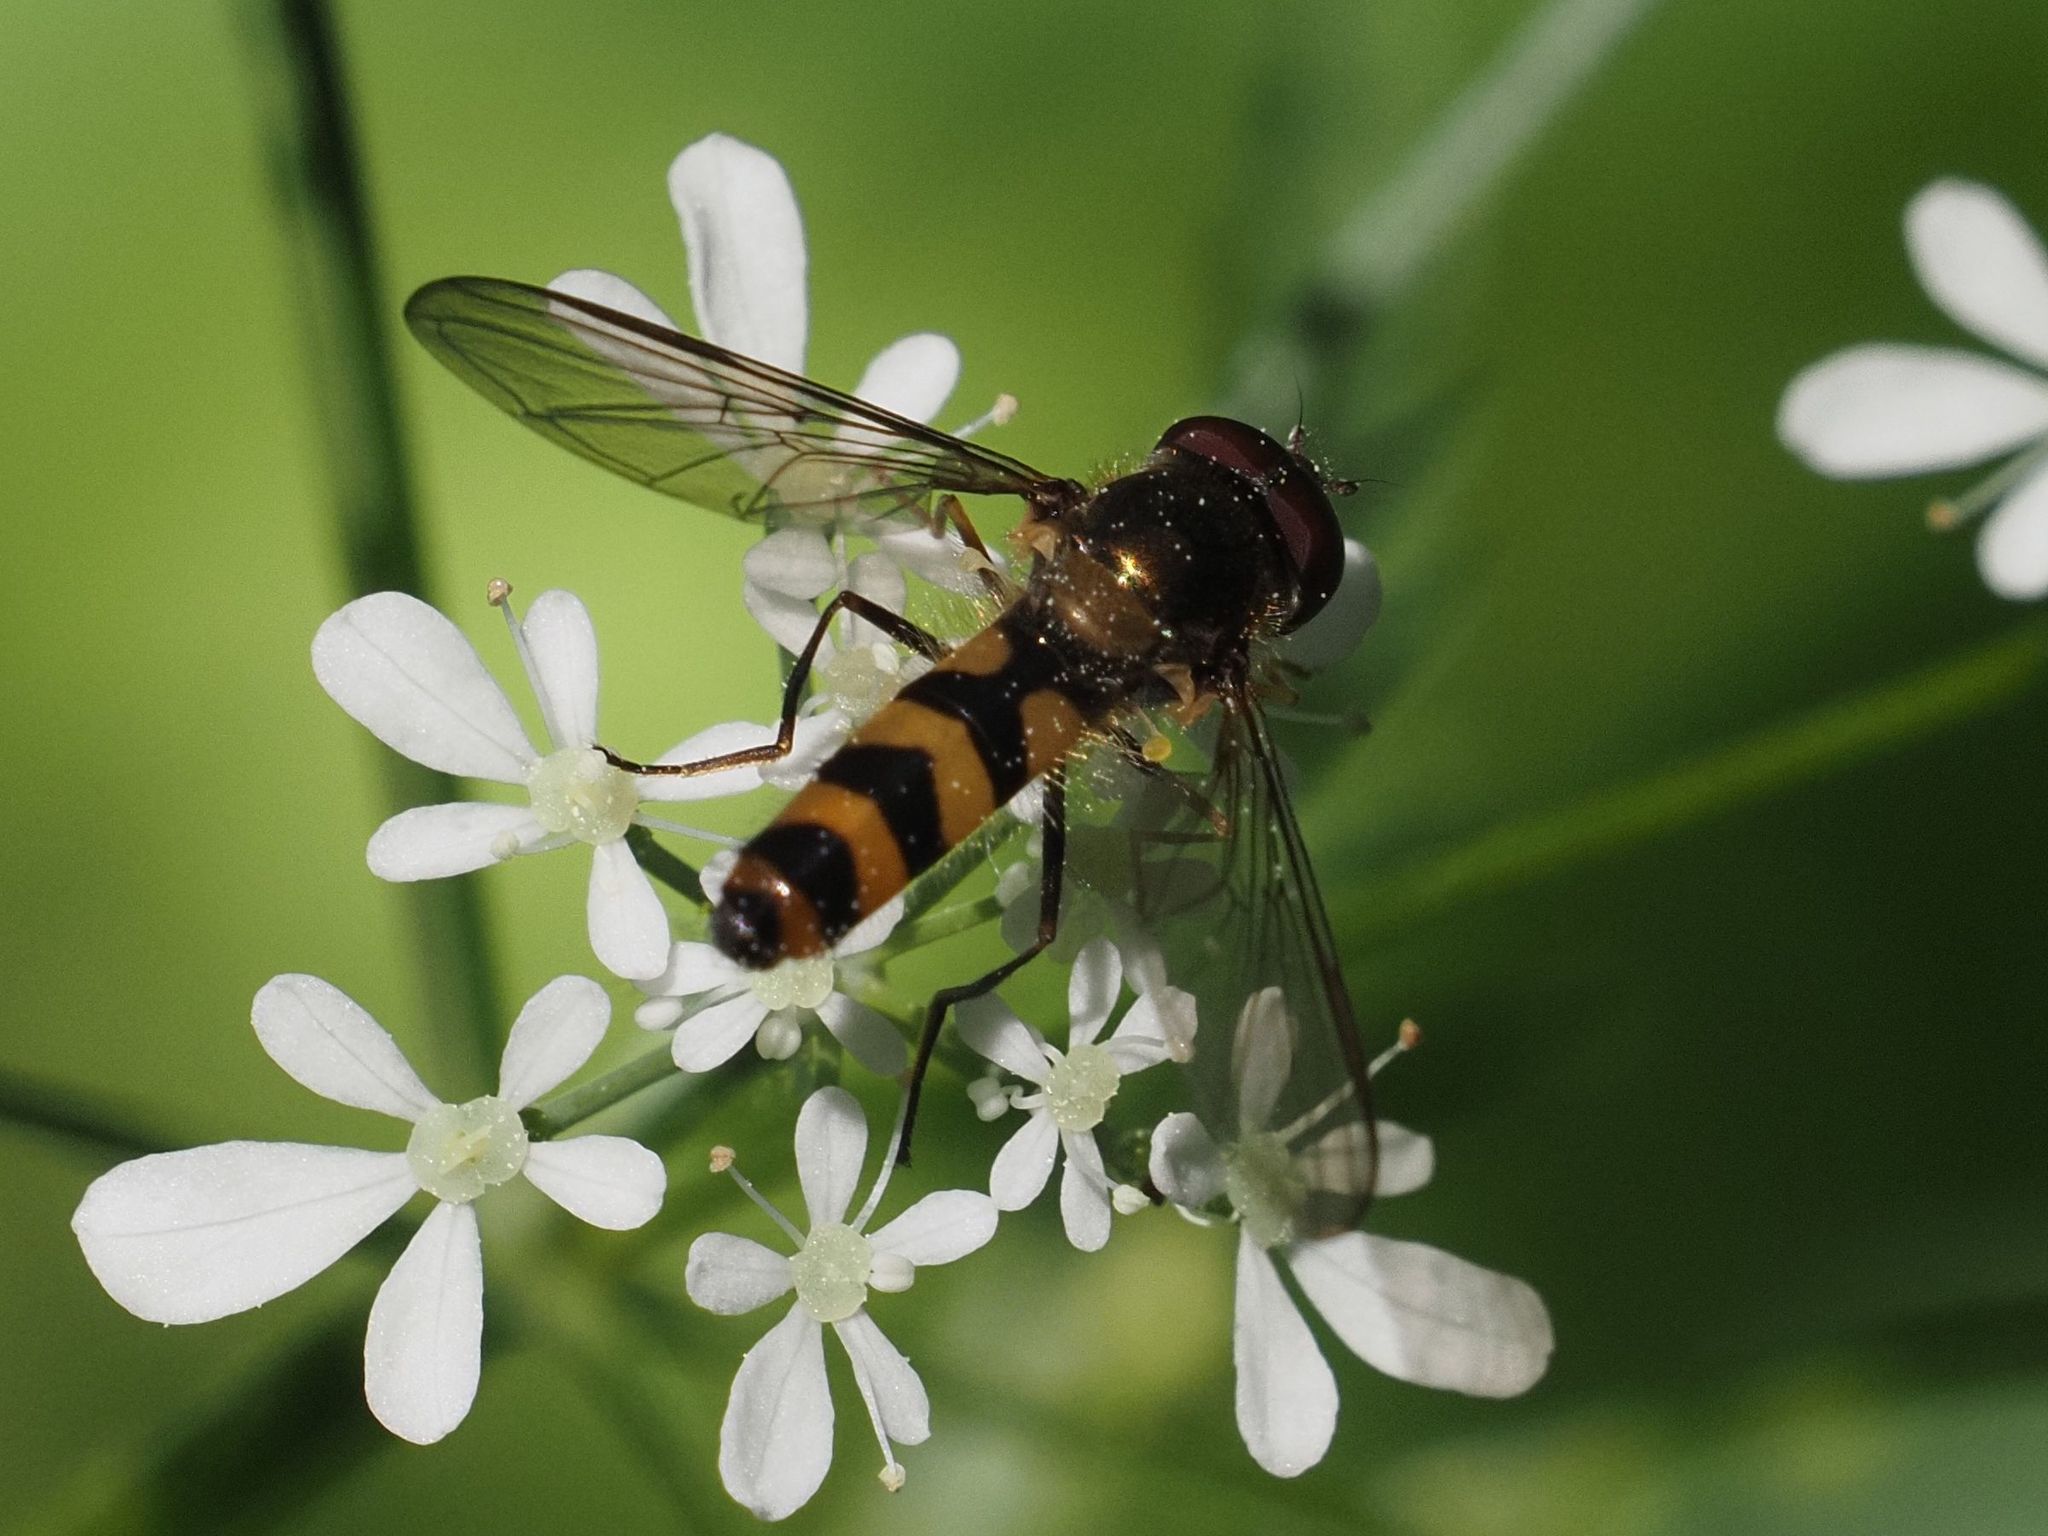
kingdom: Animalia
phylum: Arthropoda
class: Insecta
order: Diptera
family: Syrphidae
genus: Meliscaeva
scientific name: Meliscaeva cinctella
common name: American thintail fly
